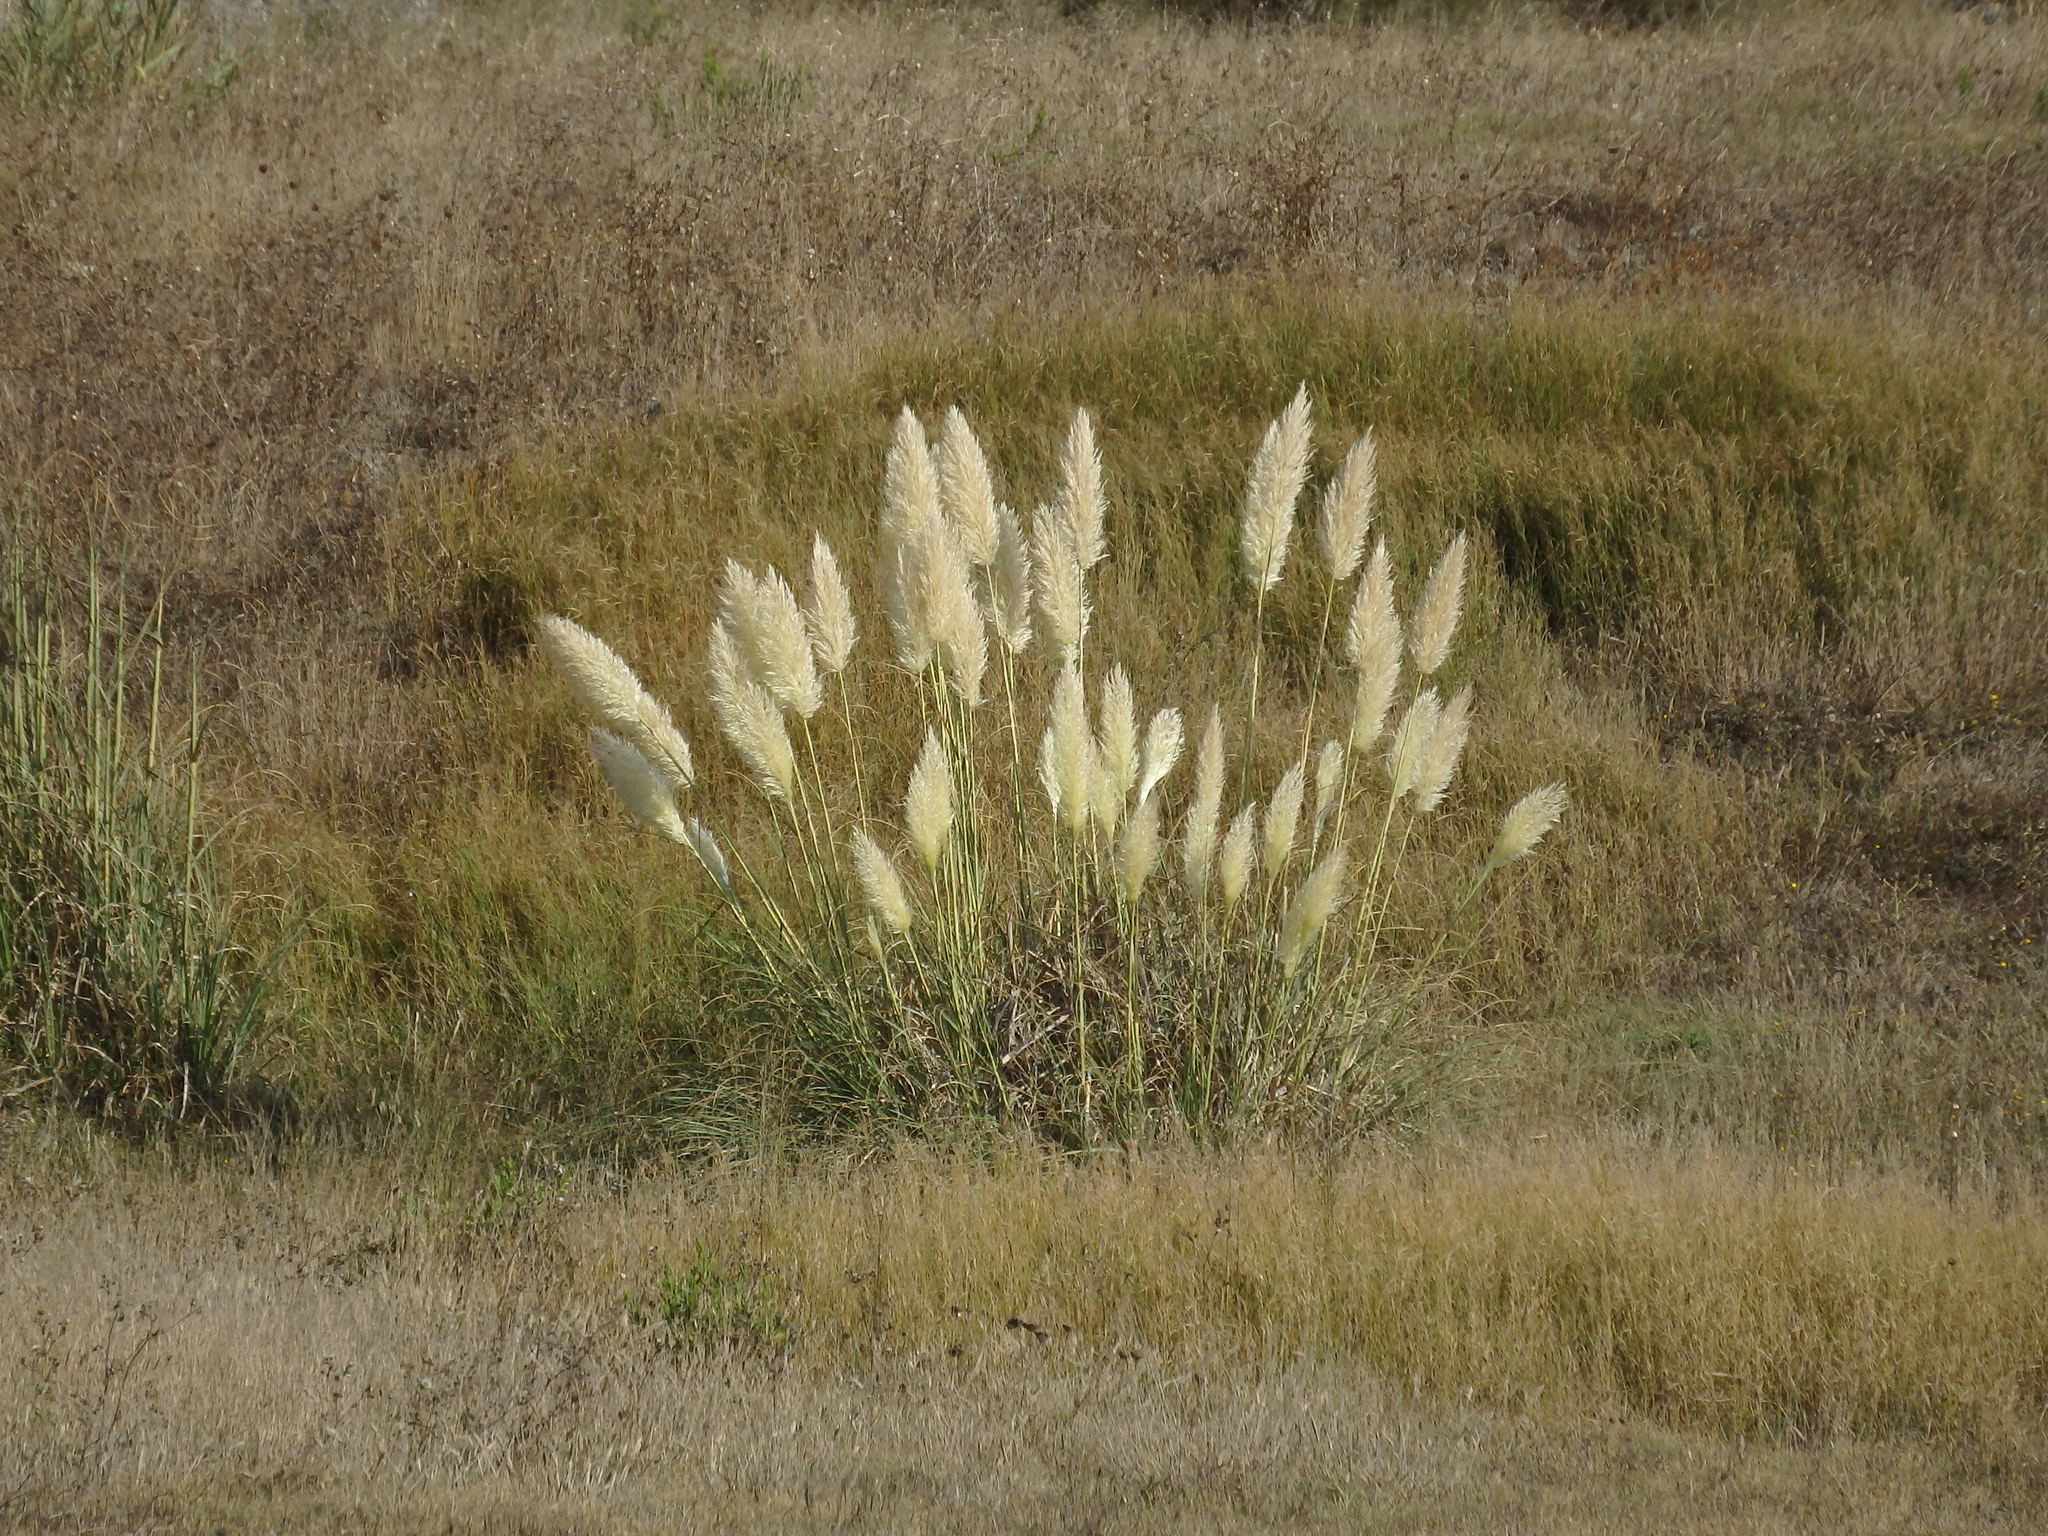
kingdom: Plantae
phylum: Tracheophyta
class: Liliopsida
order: Poales
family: Poaceae
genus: Cortaderia
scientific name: Cortaderia selloana
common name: Uruguayan pampas grass
